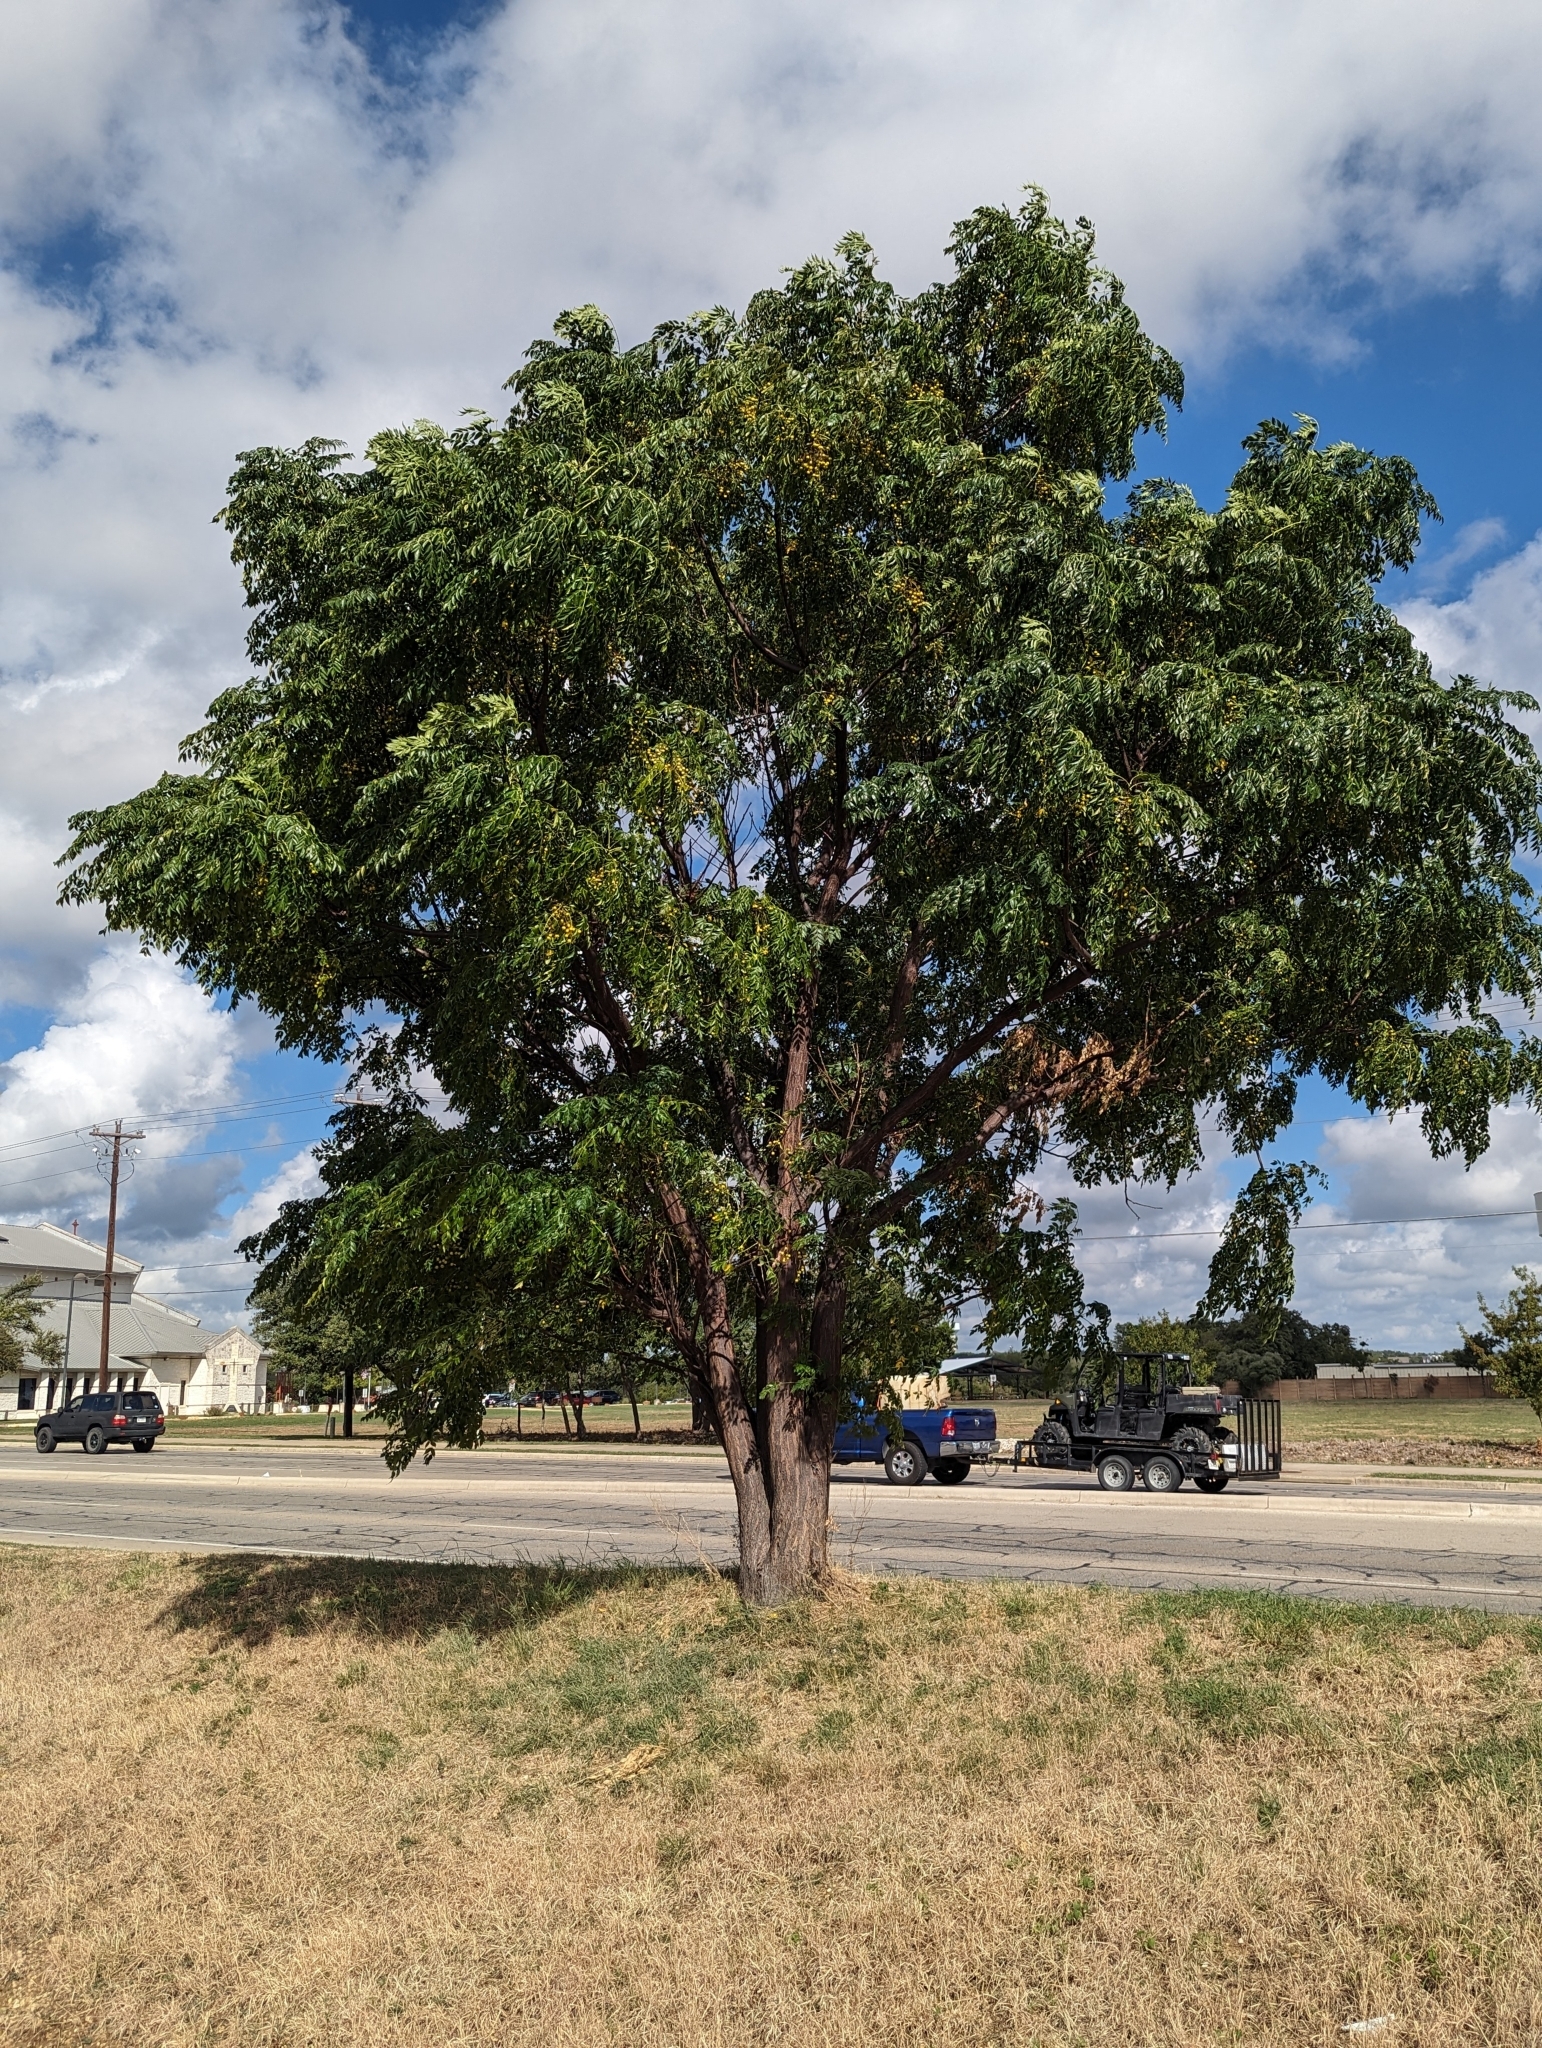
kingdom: Plantae
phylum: Tracheophyta
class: Magnoliopsida
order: Sapindales
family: Meliaceae
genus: Melia
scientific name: Melia azedarach
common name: Chinaberrytree
